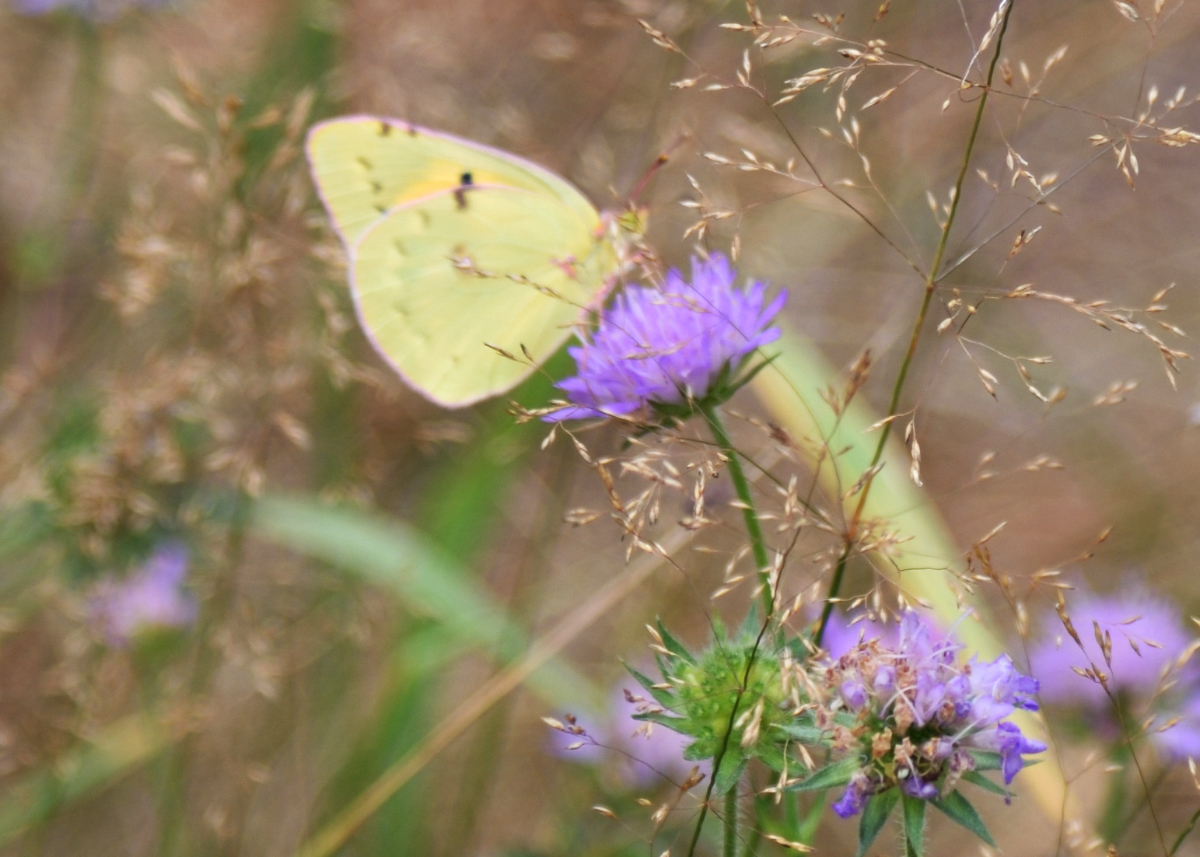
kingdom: Animalia
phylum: Arthropoda
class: Insecta
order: Lepidoptera
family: Pieridae
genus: Colias
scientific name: Colias myrmidone
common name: Danube clouded yellow
